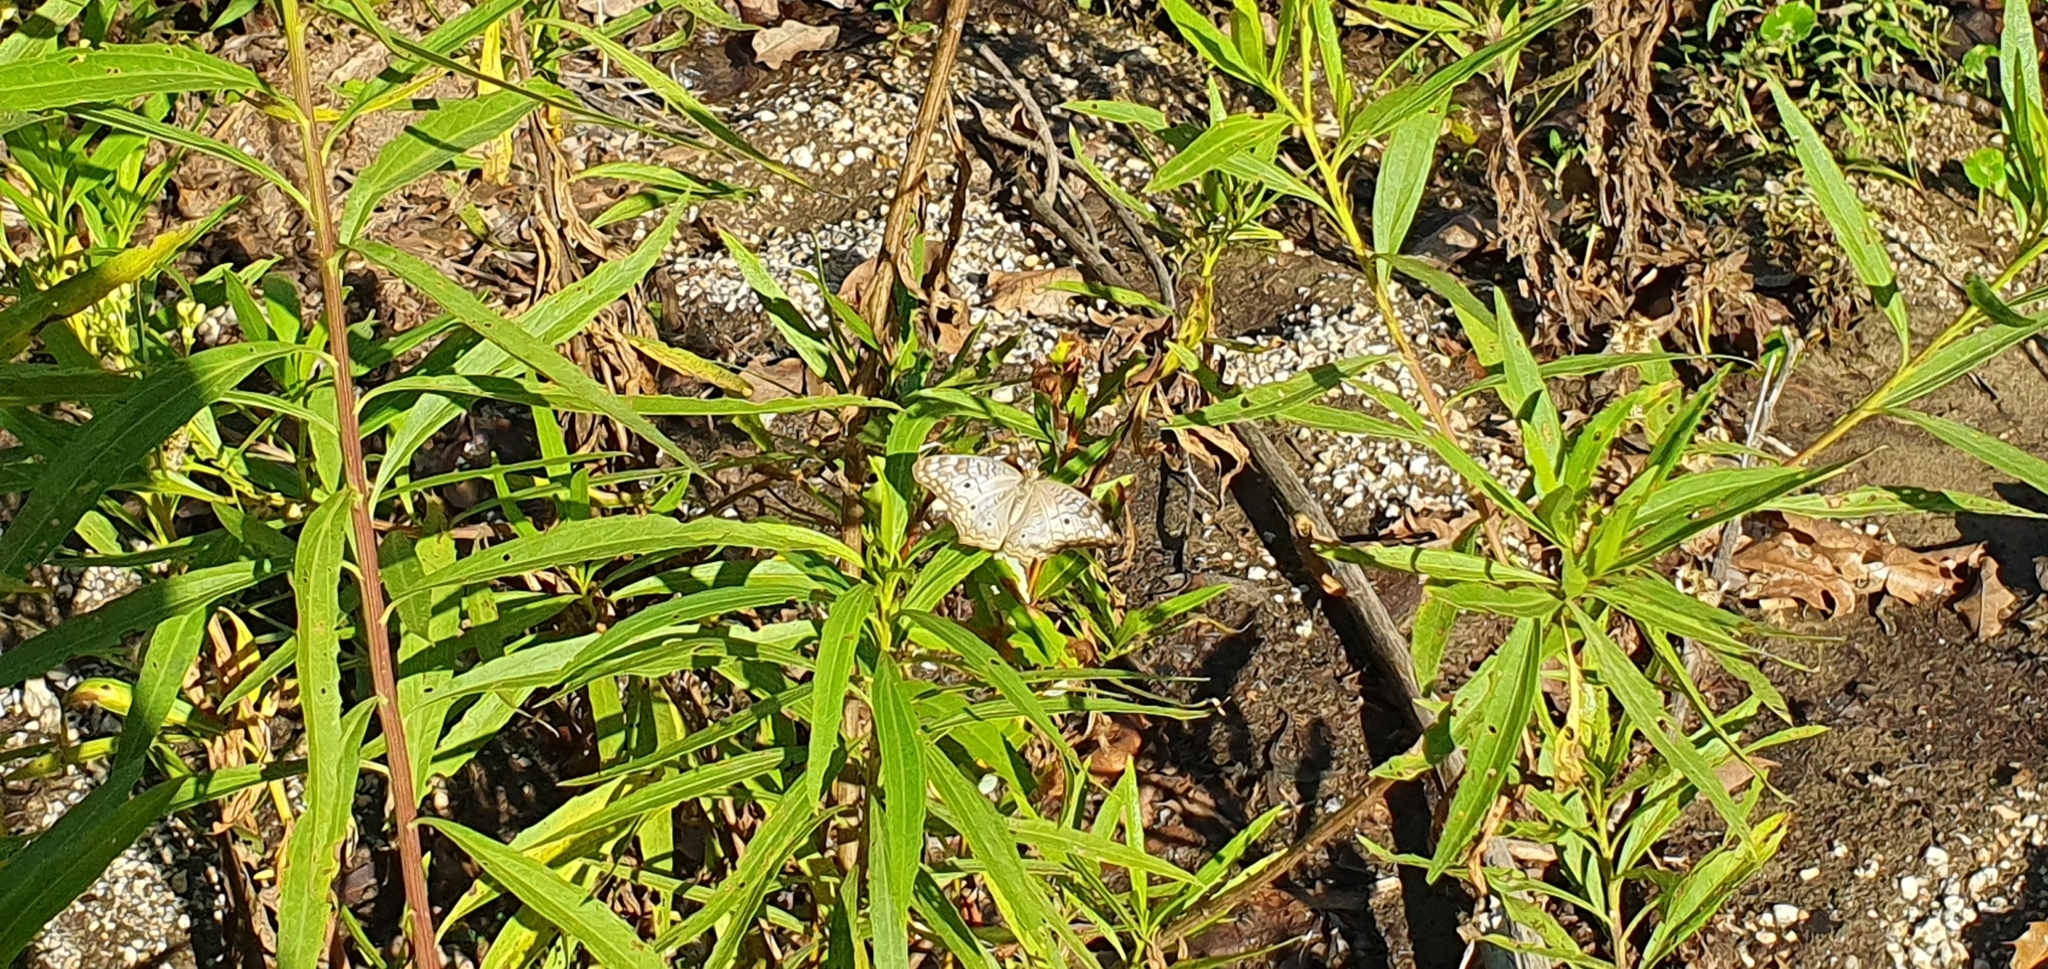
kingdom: Animalia
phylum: Arthropoda
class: Insecta
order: Lepidoptera
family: Nymphalidae
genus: Anartia
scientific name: Anartia jatrophae
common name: White peacock
